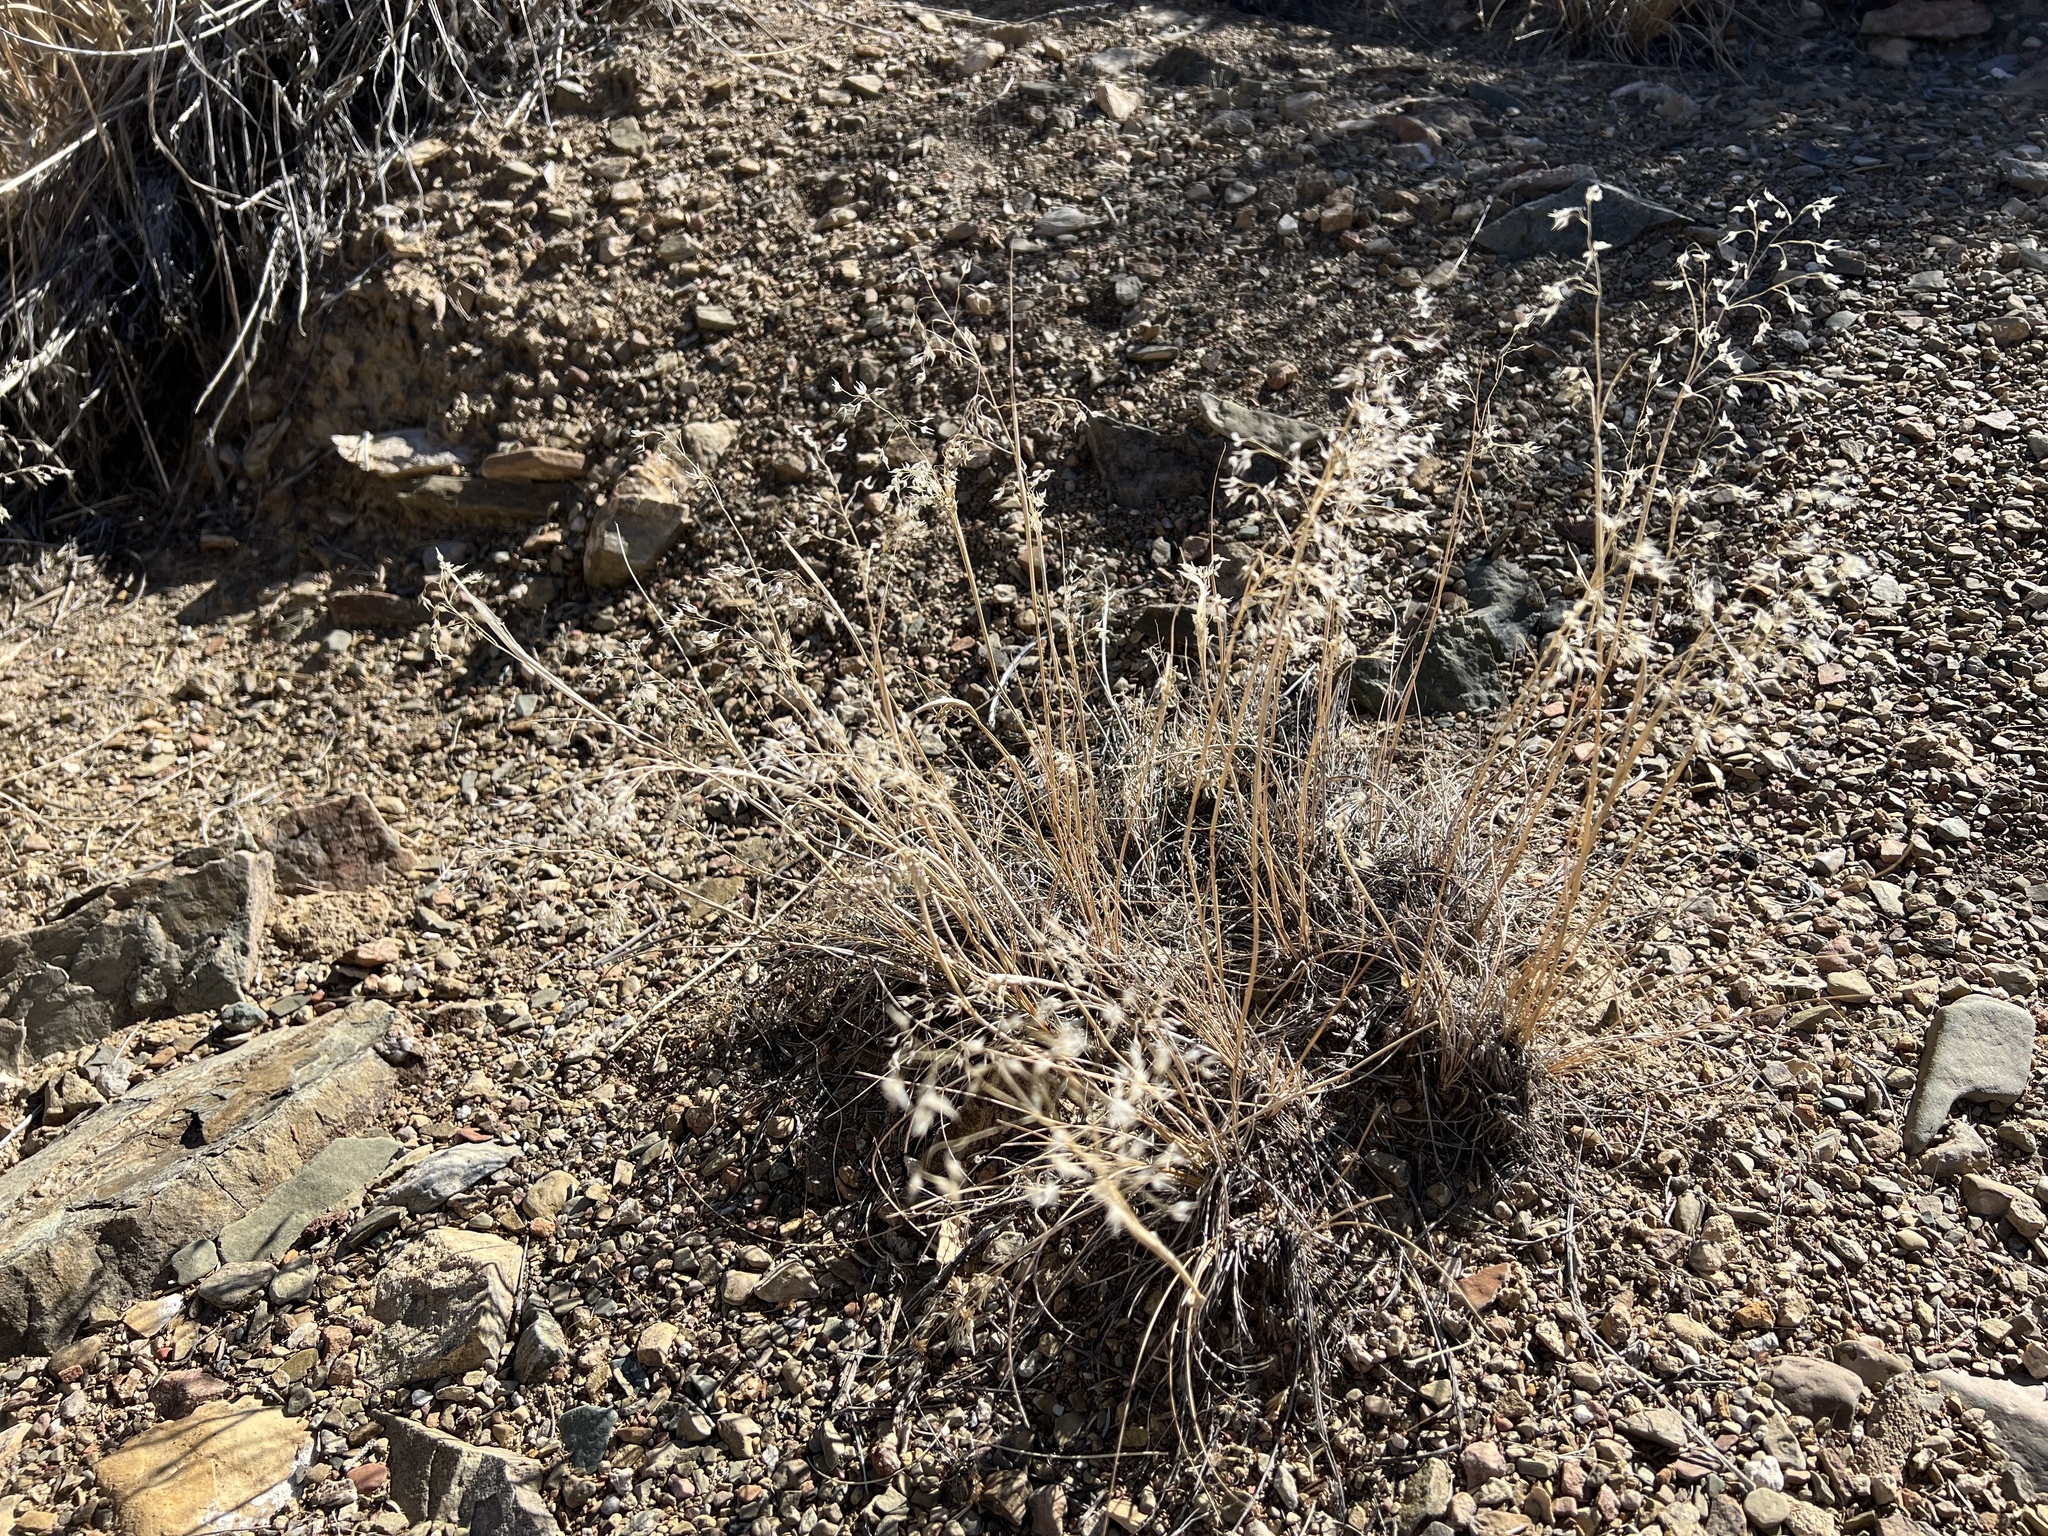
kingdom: Plantae
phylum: Tracheophyta
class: Liliopsida
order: Poales
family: Poaceae
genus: Eriocoma
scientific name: Eriocoma hymenoides
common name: Indian mountain ricegrass
